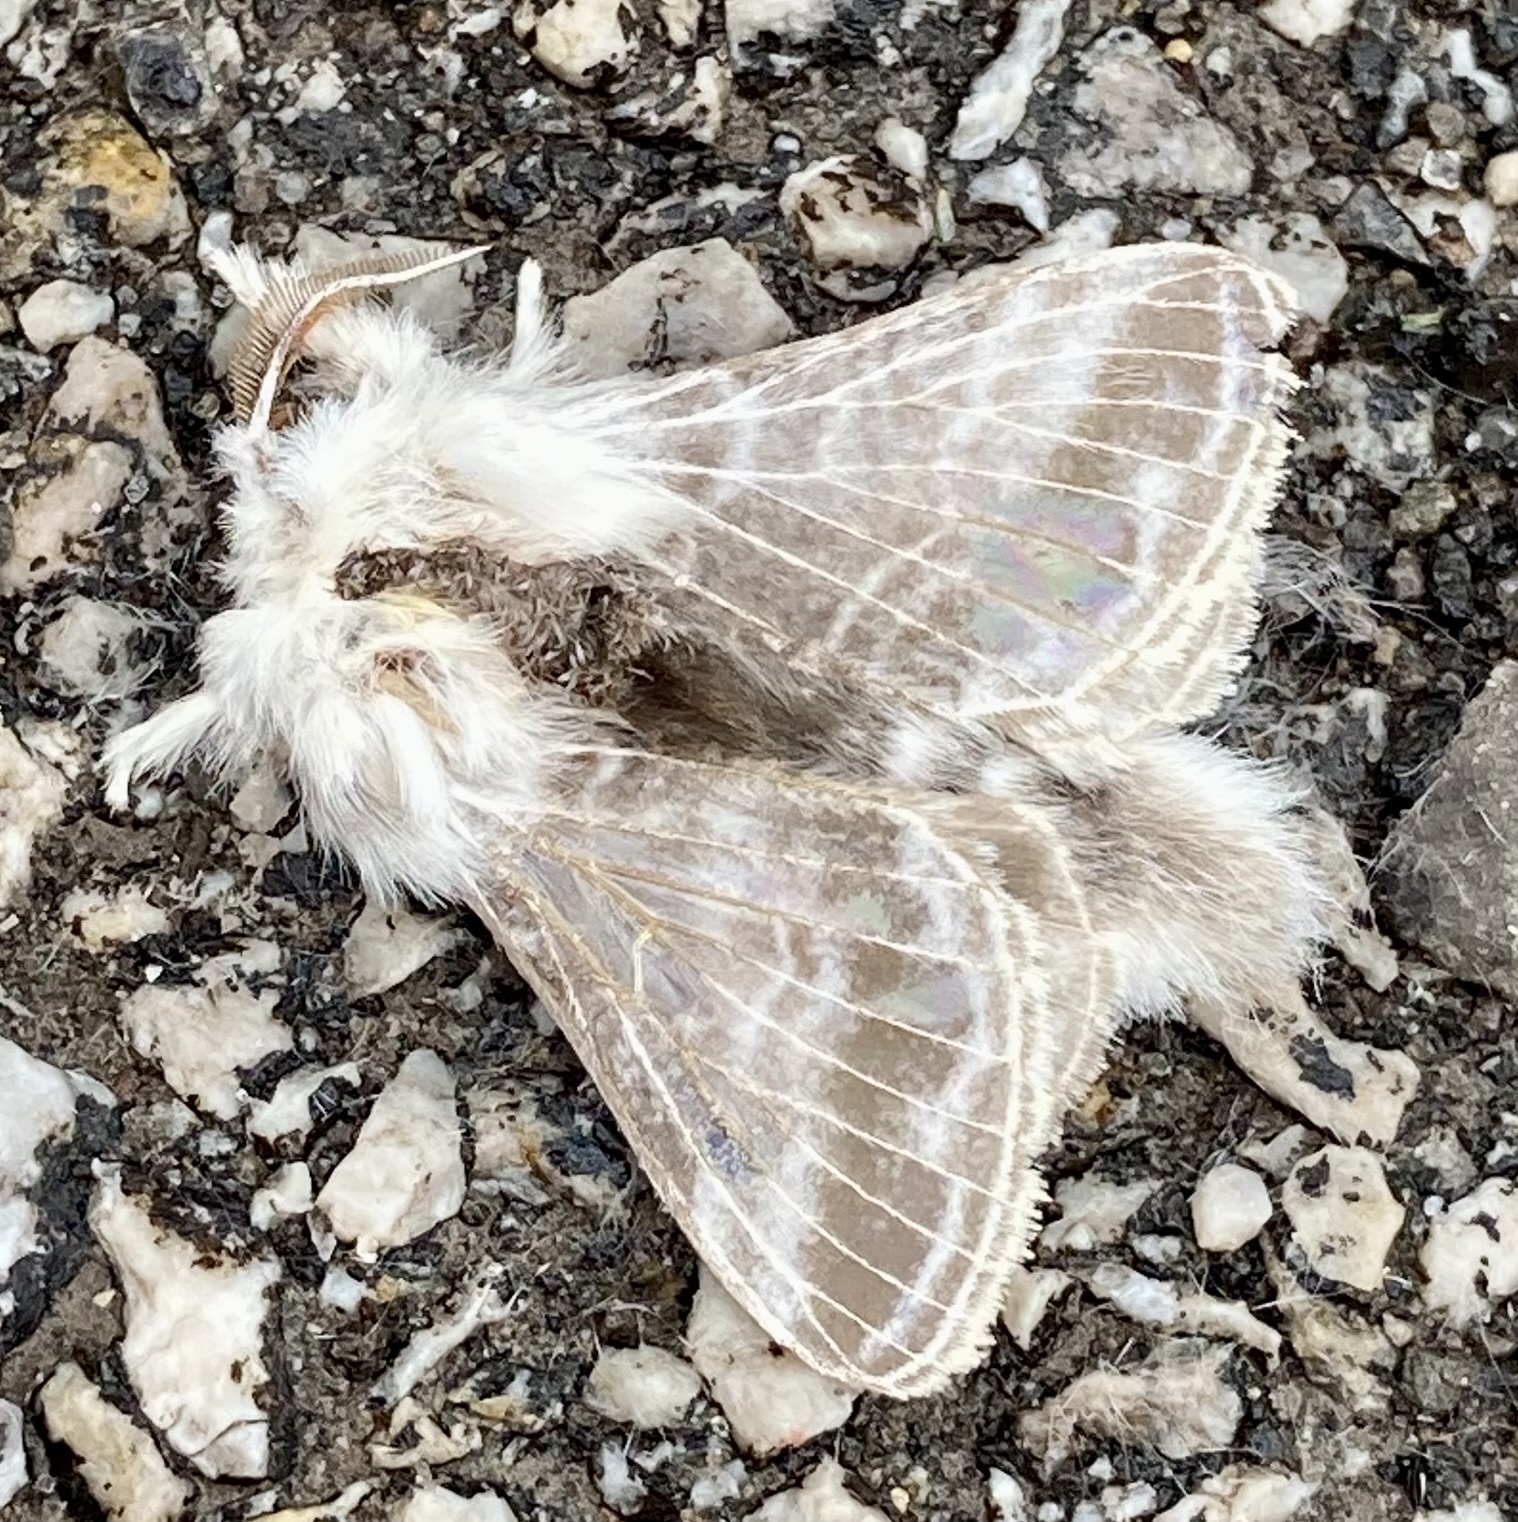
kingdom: Animalia
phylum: Arthropoda
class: Insecta
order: Lepidoptera
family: Lasiocampidae
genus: Tolype
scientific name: Tolype velleda
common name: Large tolype moth
